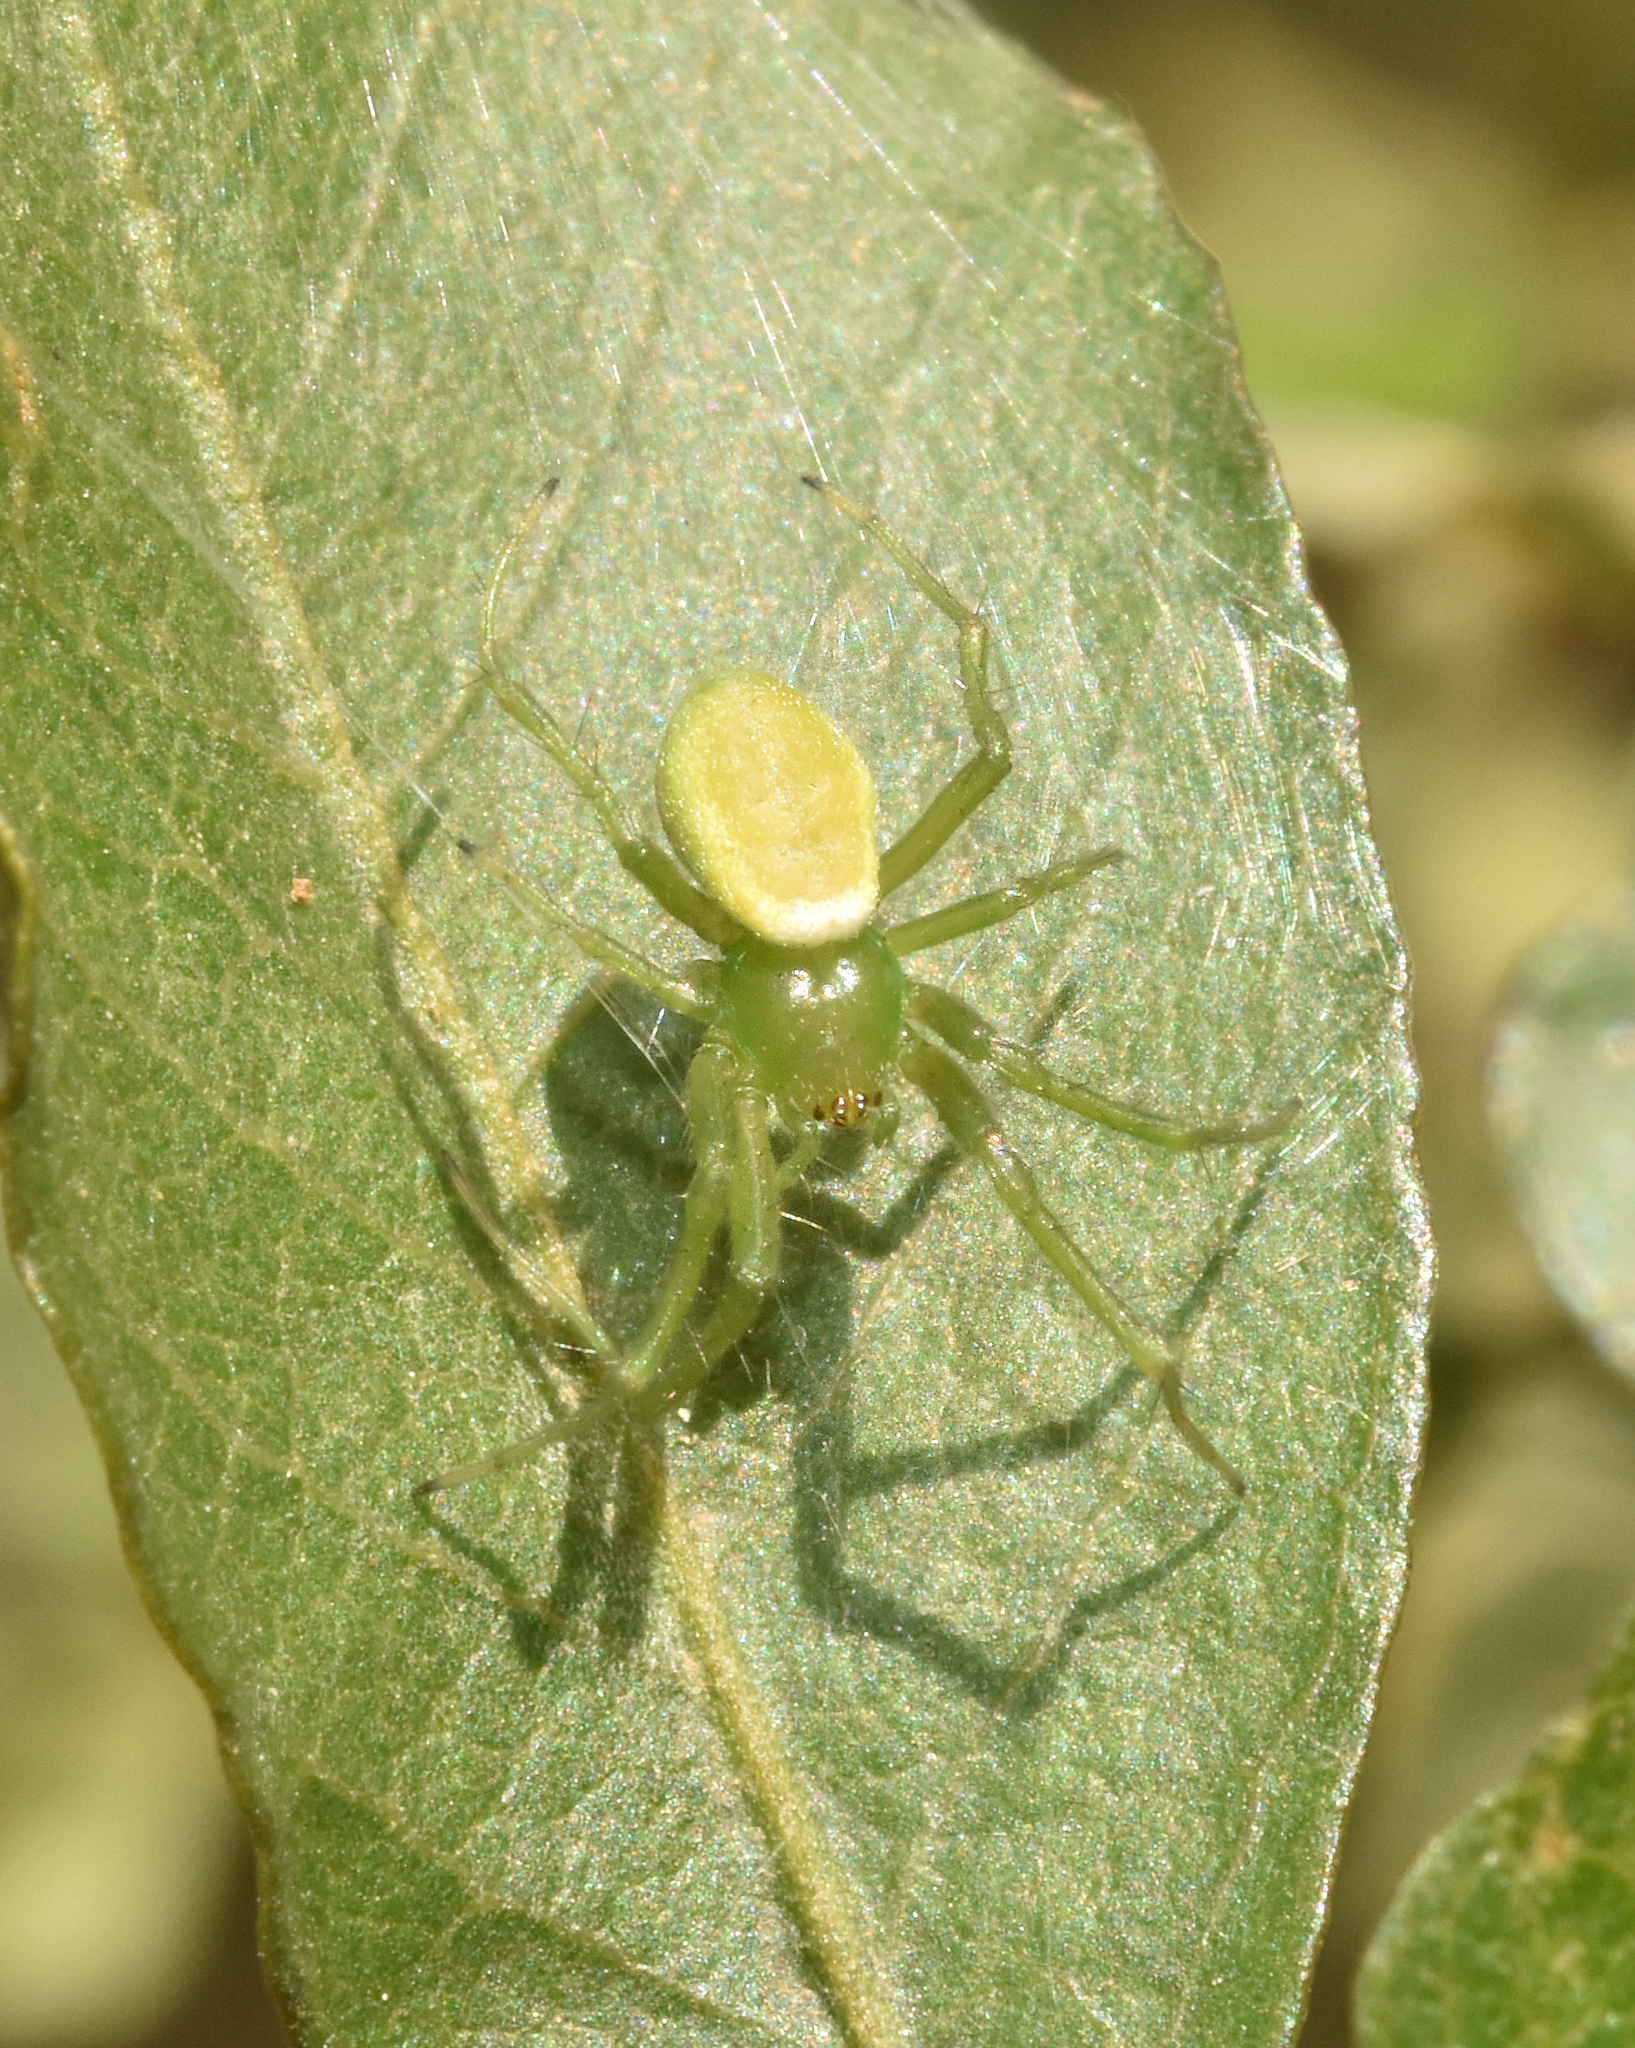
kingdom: Animalia
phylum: Arthropoda
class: Arachnida
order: Araneae
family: Araneidae
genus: Prasonica
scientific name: Prasonica albolimbata
